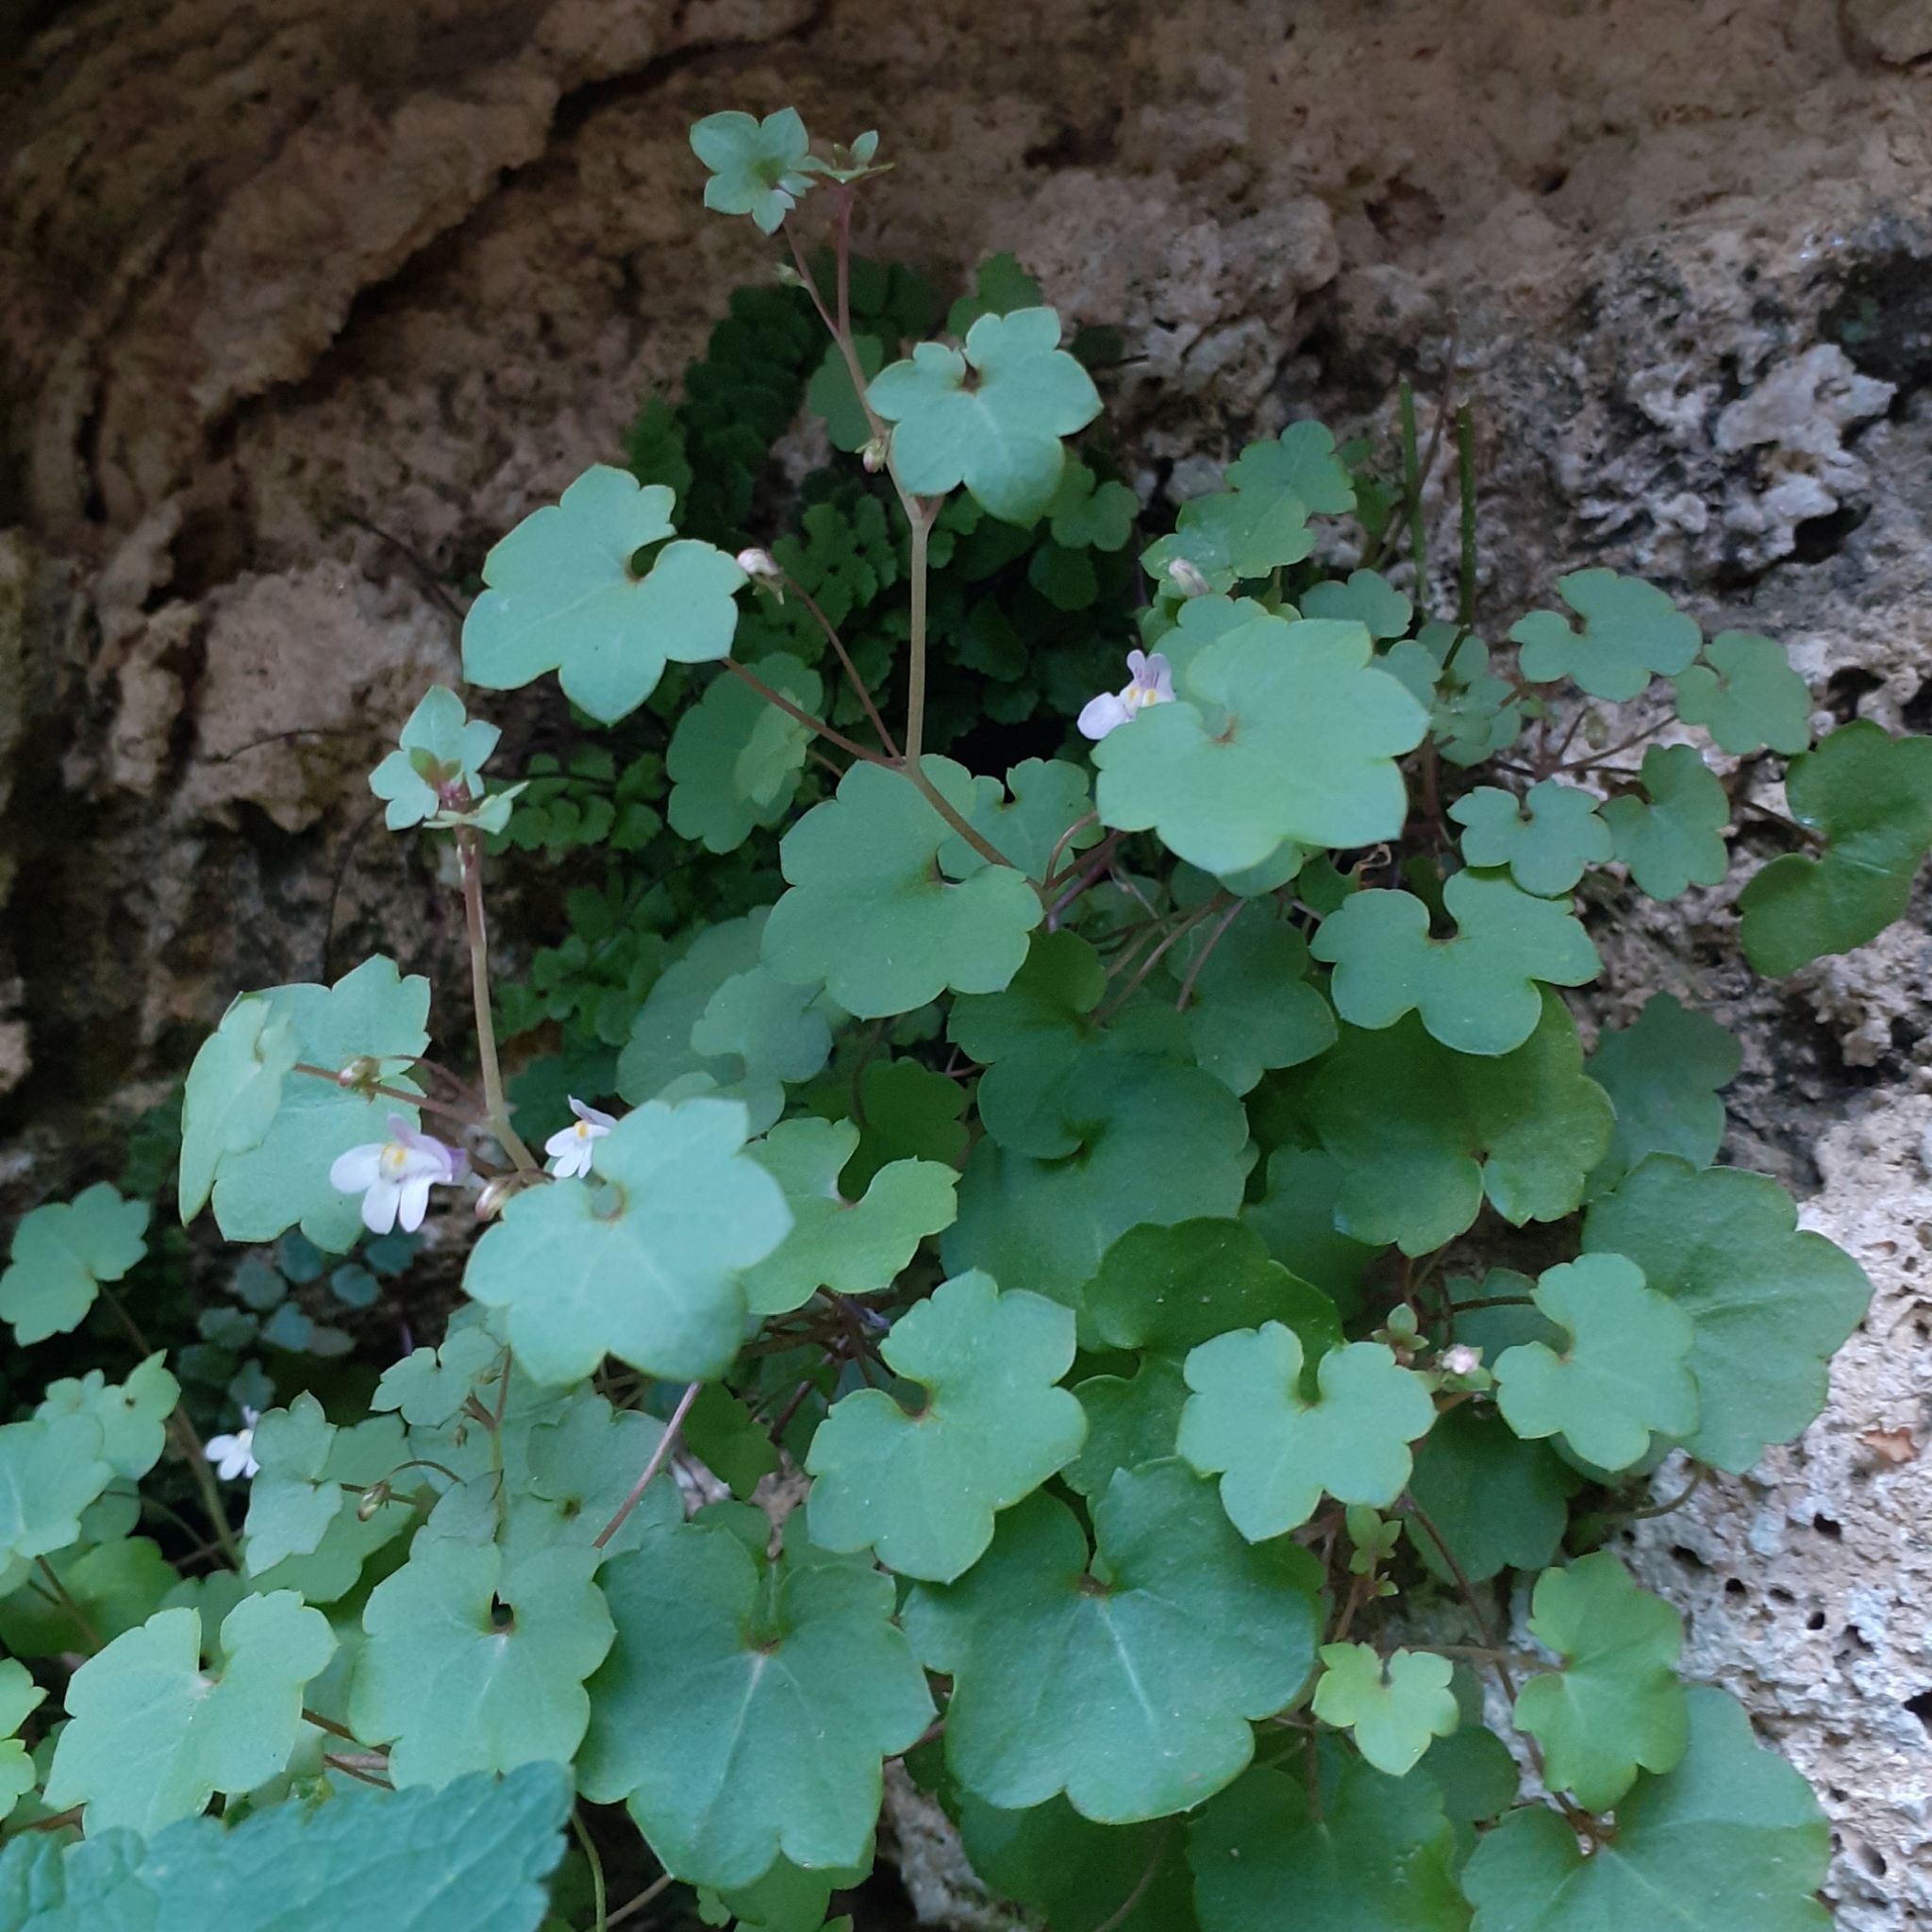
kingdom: Plantae
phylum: Tracheophyta
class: Magnoliopsida
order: Lamiales
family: Plantaginaceae
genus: Cymbalaria
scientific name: Cymbalaria muralis
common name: Ivy-leaved toadflax
